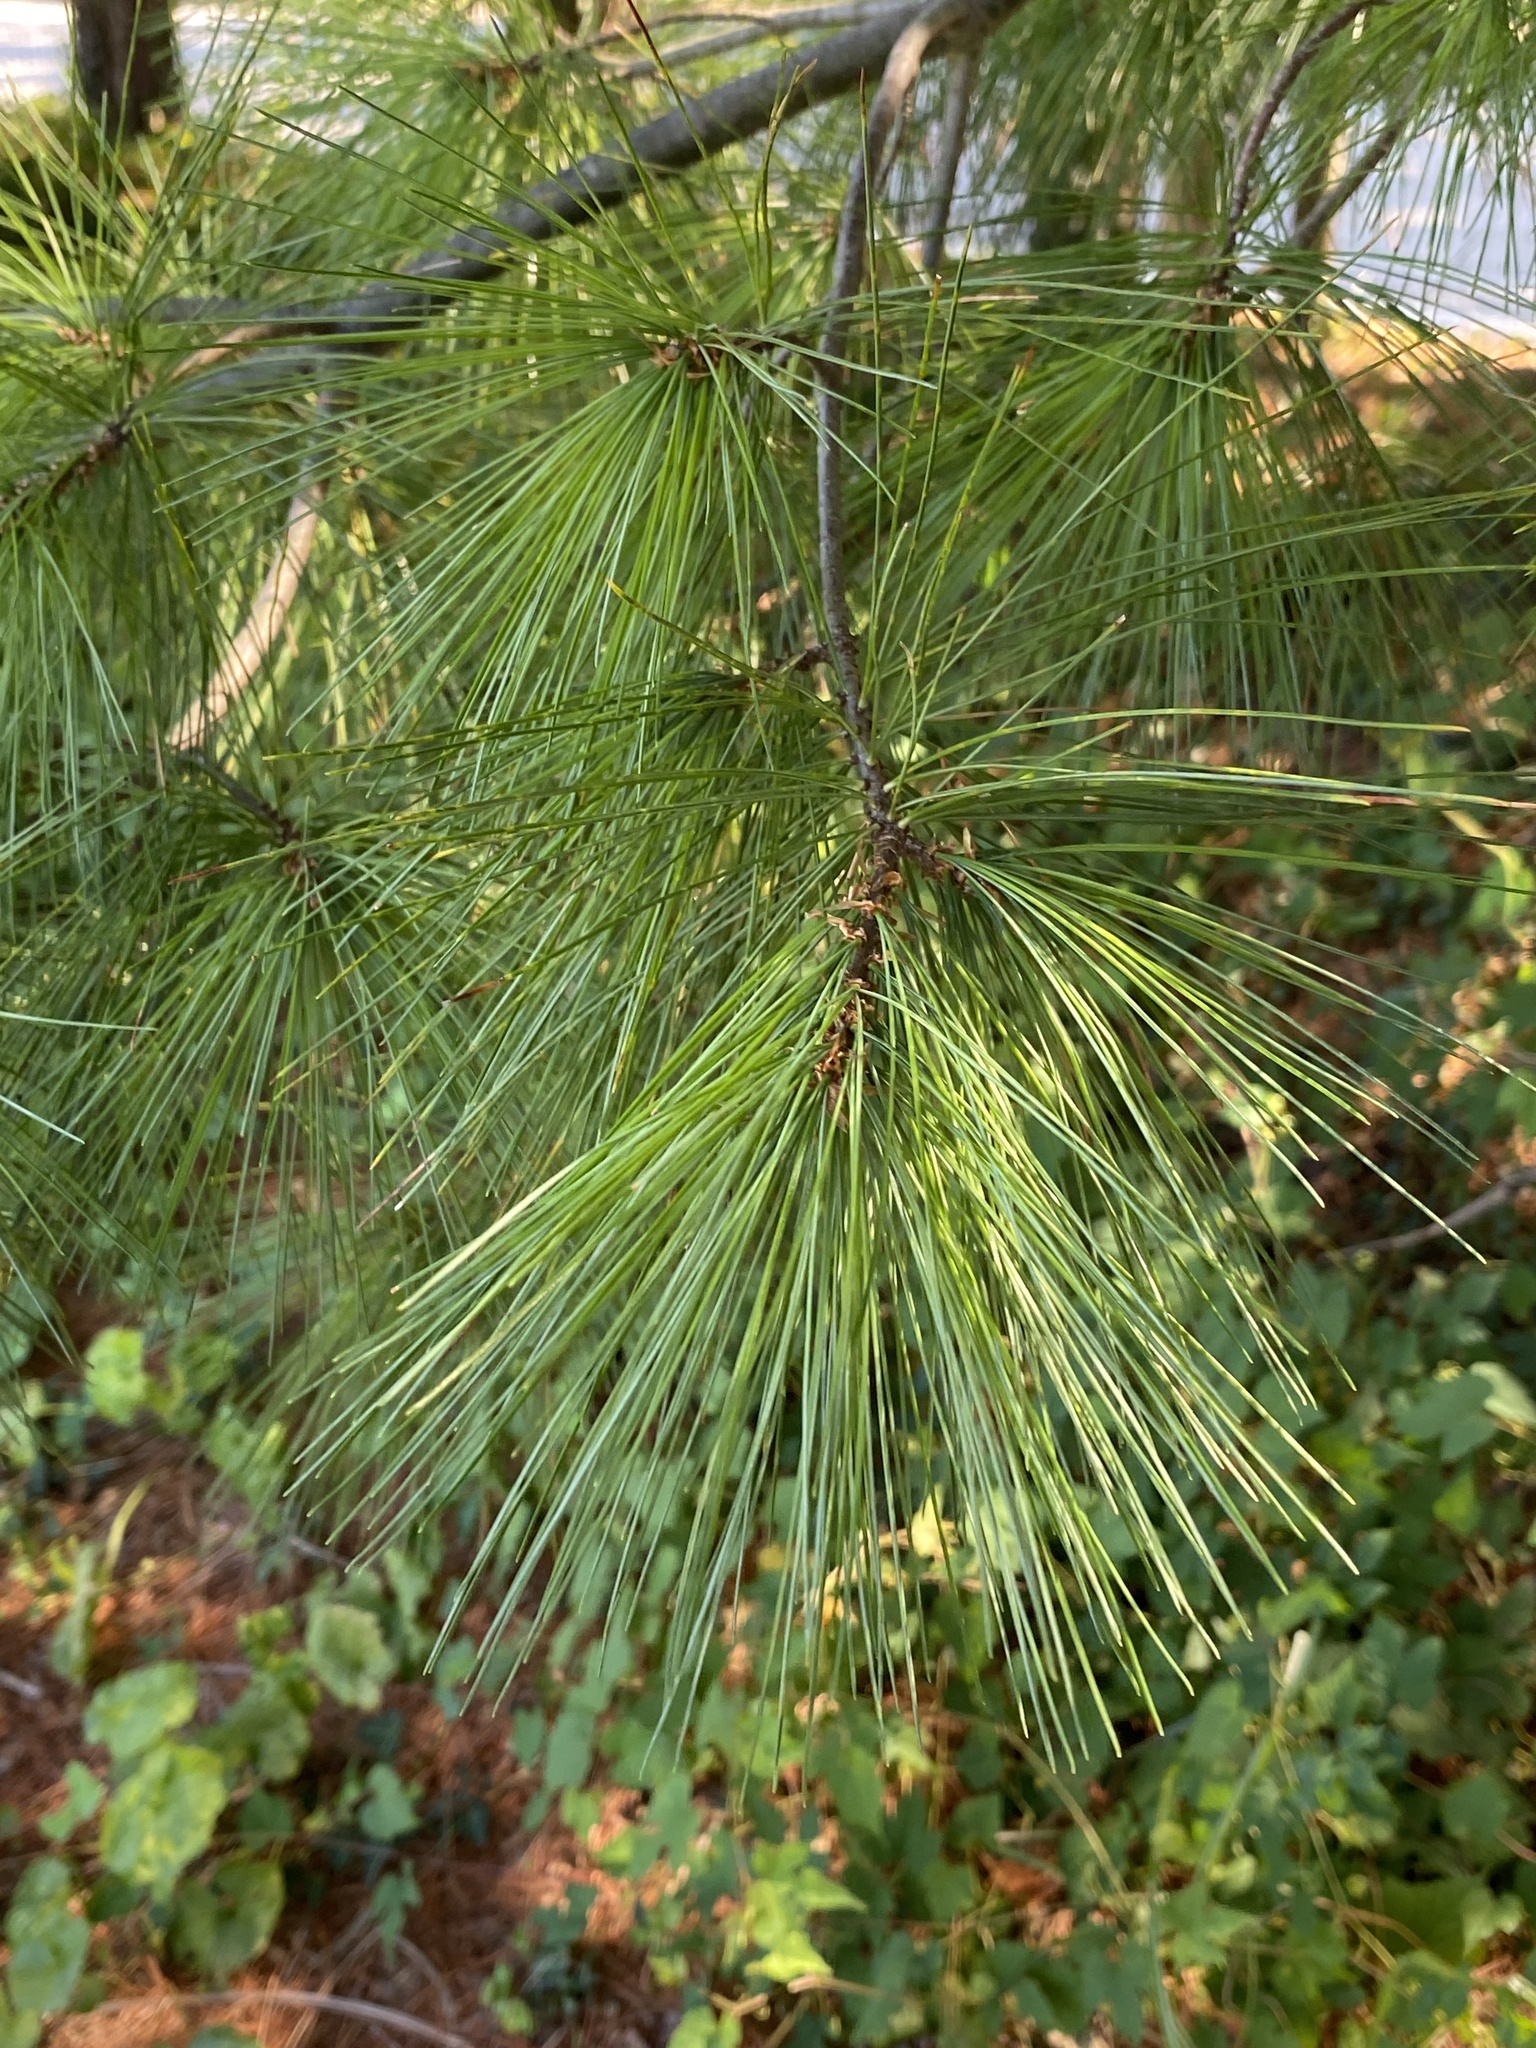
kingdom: Plantae
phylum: Tracheophyta
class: Pinopsida
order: Pinales
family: Pinaceae
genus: Pinus
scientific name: Pinus strobus
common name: Weymouth pine
